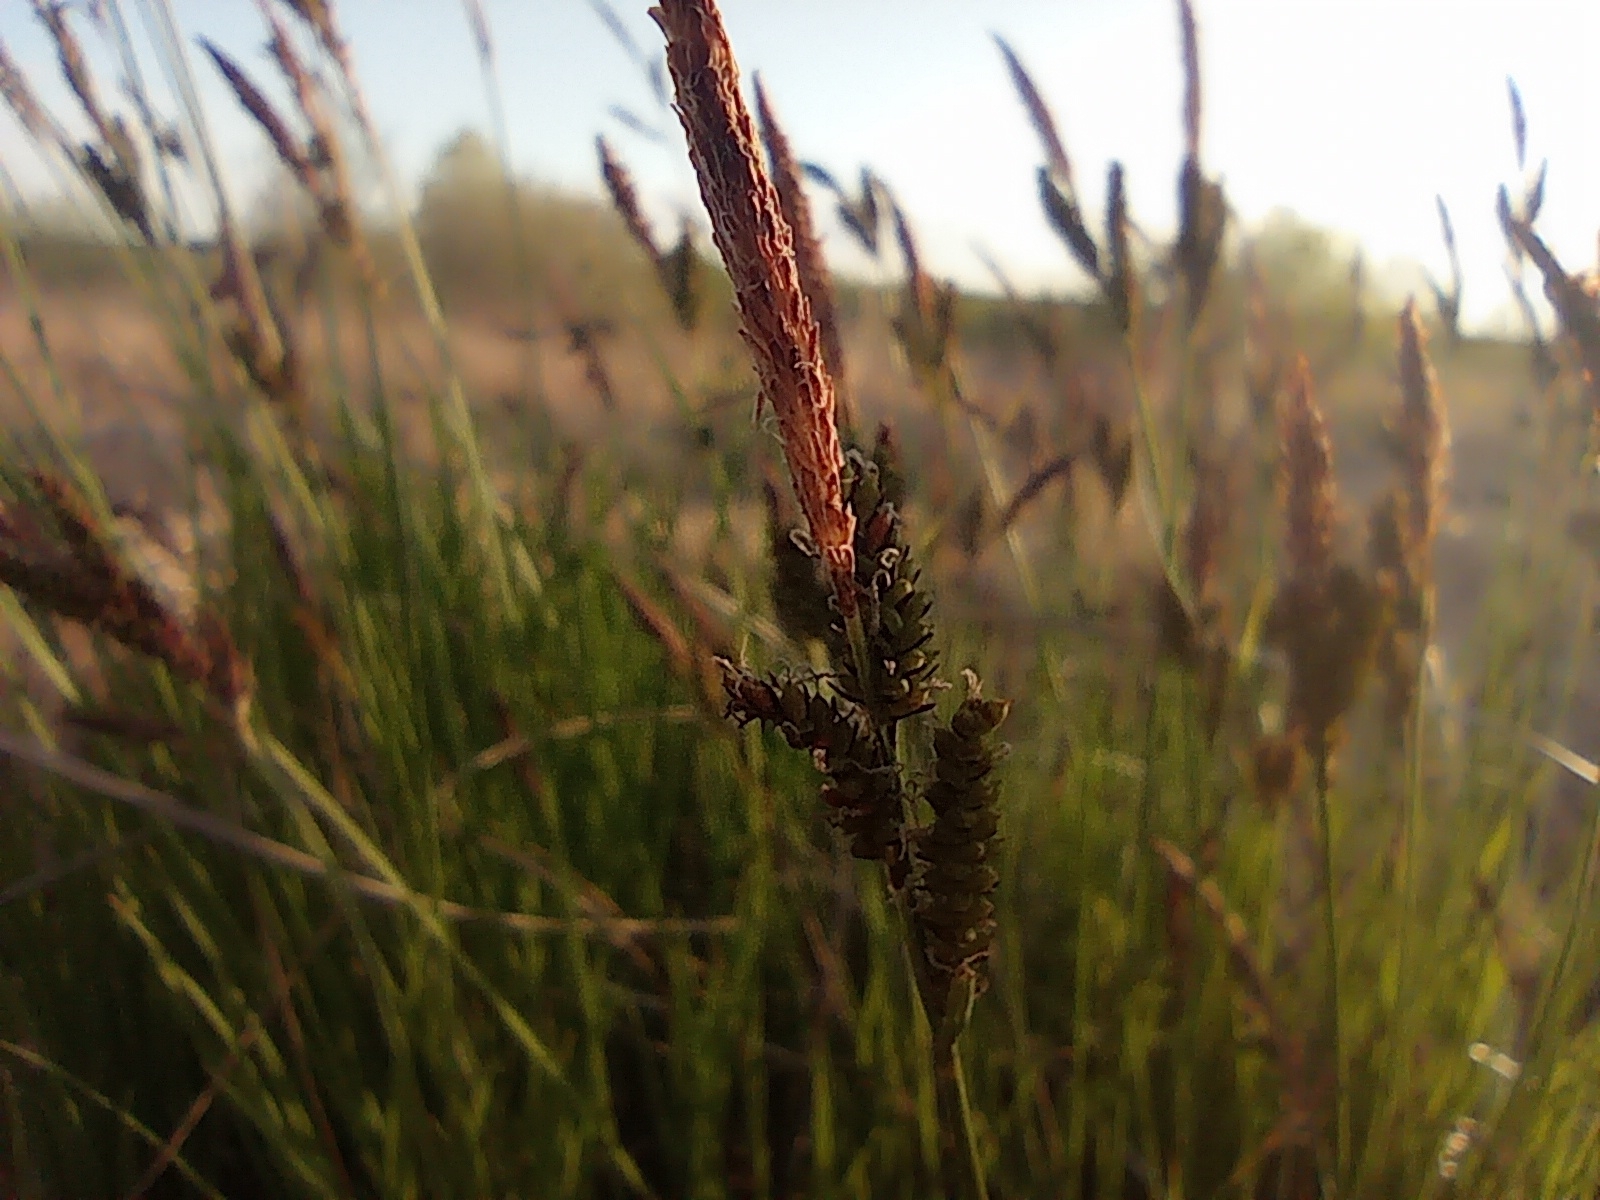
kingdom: Plantae
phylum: Tracheophyta
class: Liliopsida
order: Poales
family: Cyperaceae
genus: Carex
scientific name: Carex cespitosa
